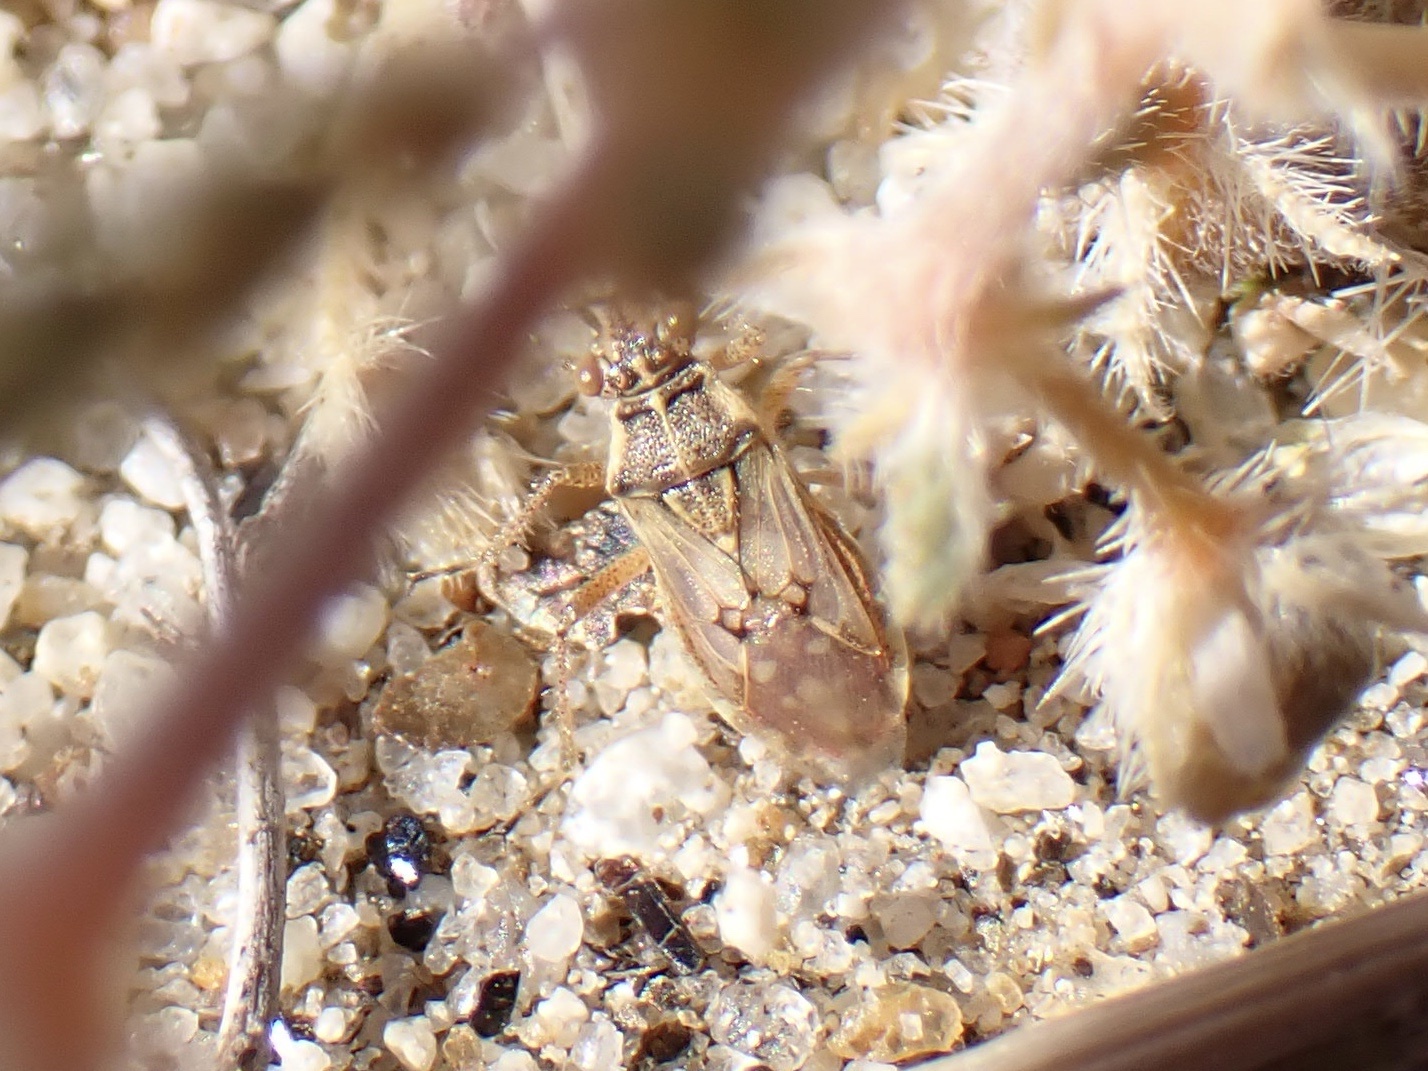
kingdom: Animalia
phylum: Arthropoda
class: Insecta
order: Hemiptera
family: Rhopalidae
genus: Liorhyssus
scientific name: Liorhyssus hyalinus
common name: Scentless plant bug
